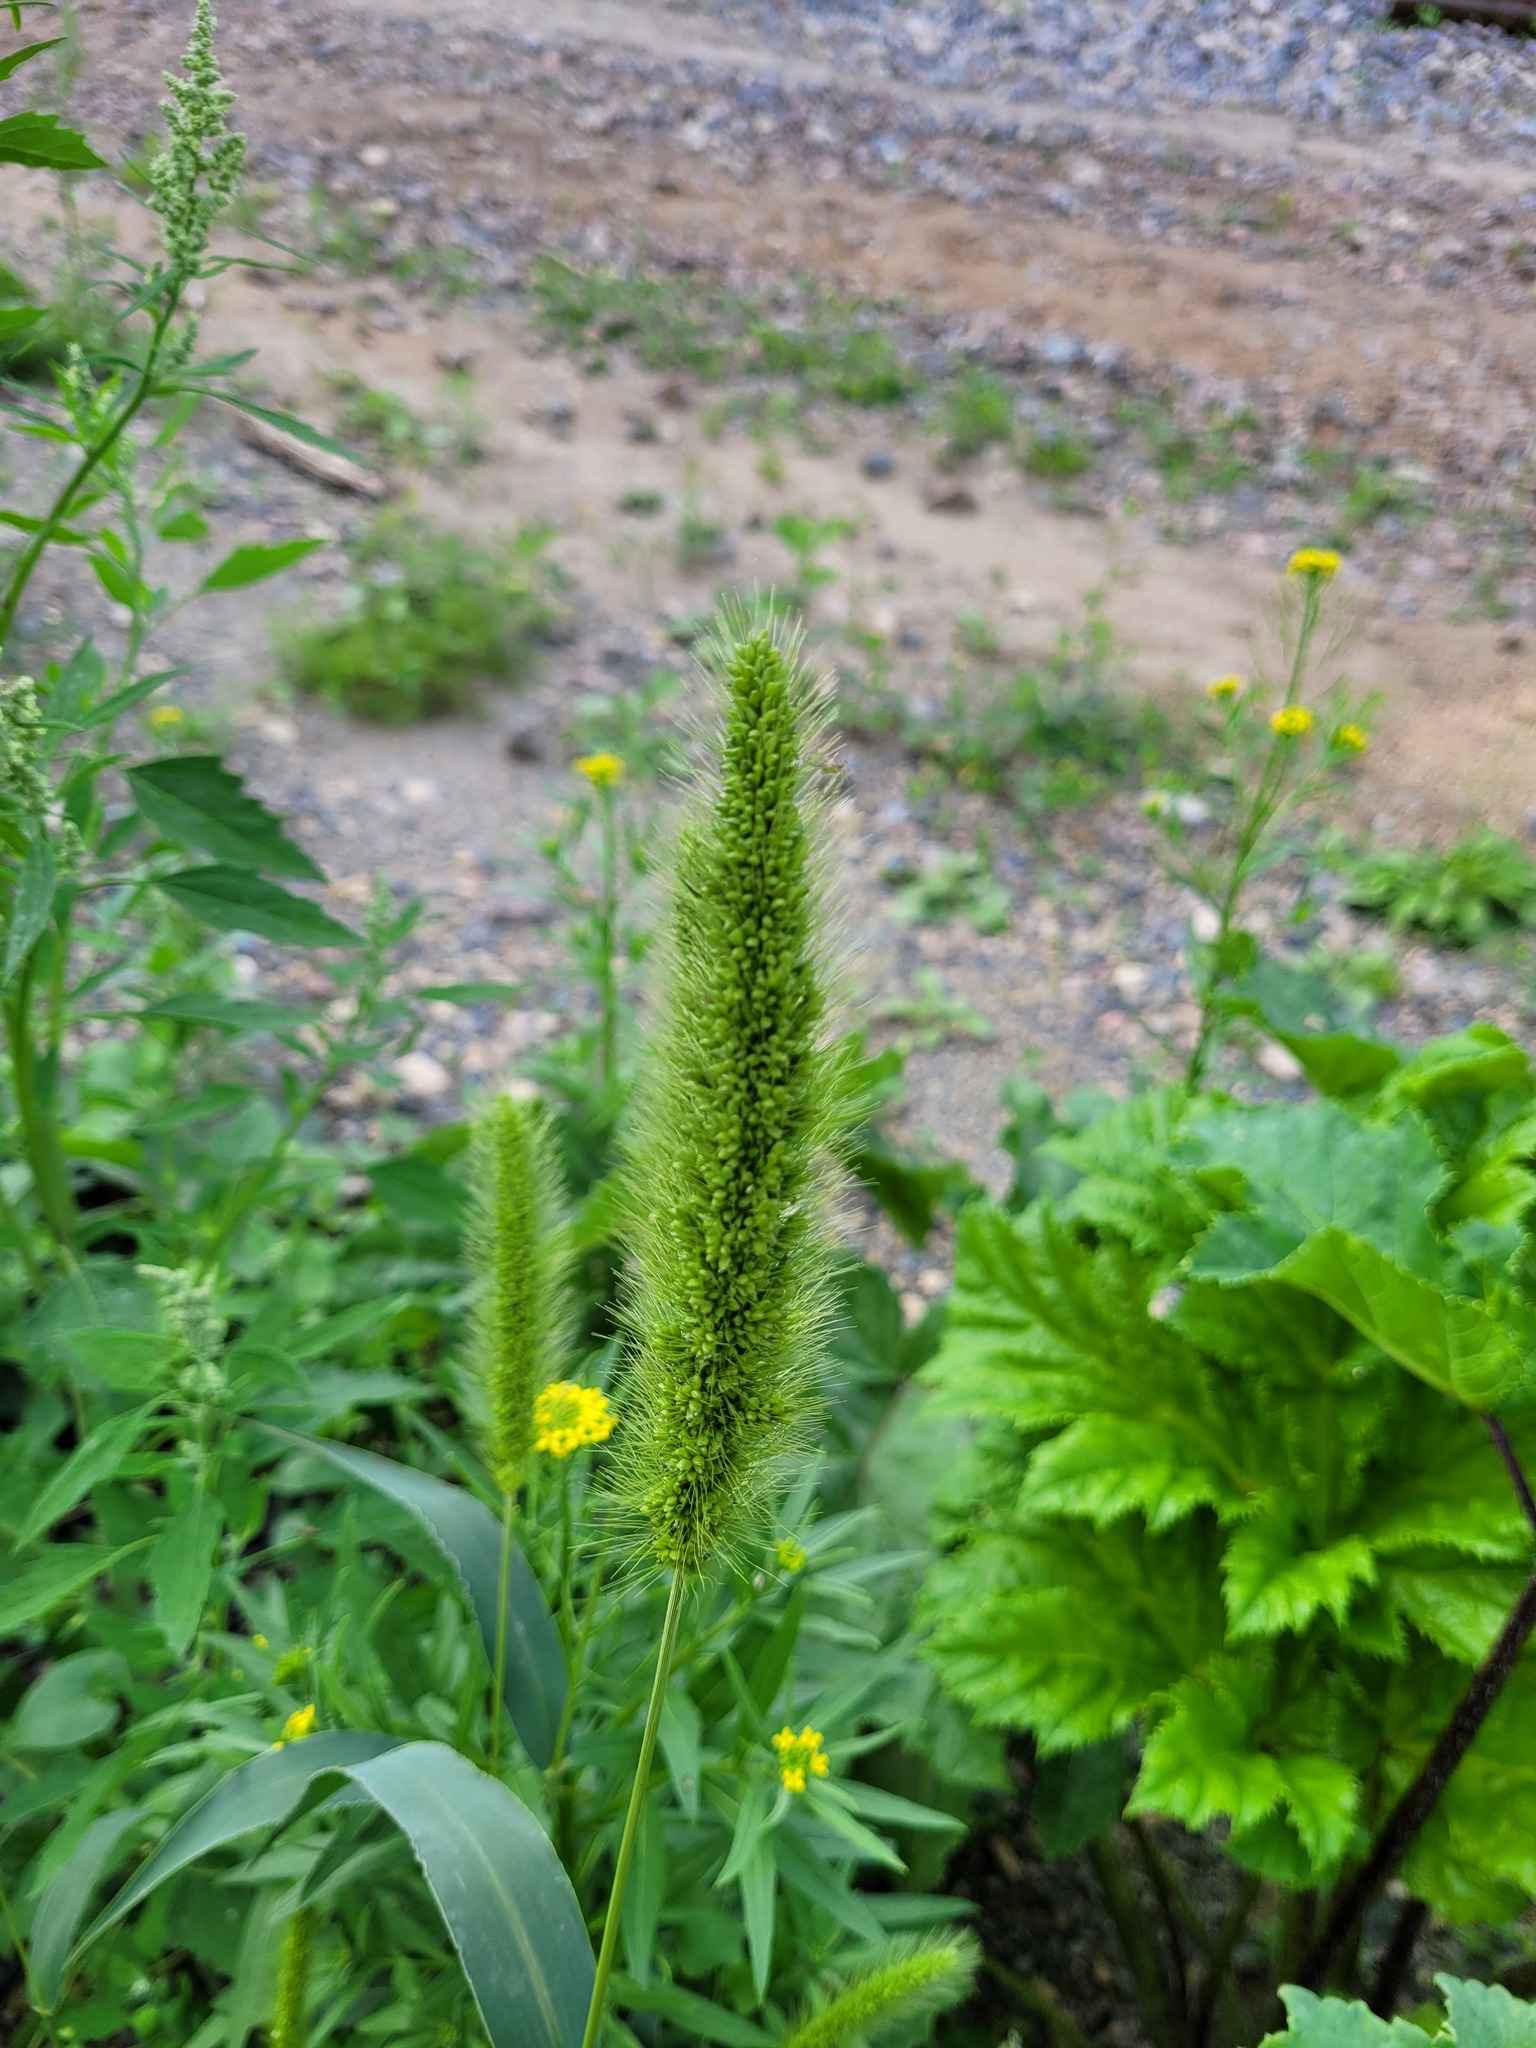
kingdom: Plantae
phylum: Tracheophyta
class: Liliopsida
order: Poales
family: Poaceae
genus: Setaria
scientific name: Setaria viridis
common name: Green bristlegrass
